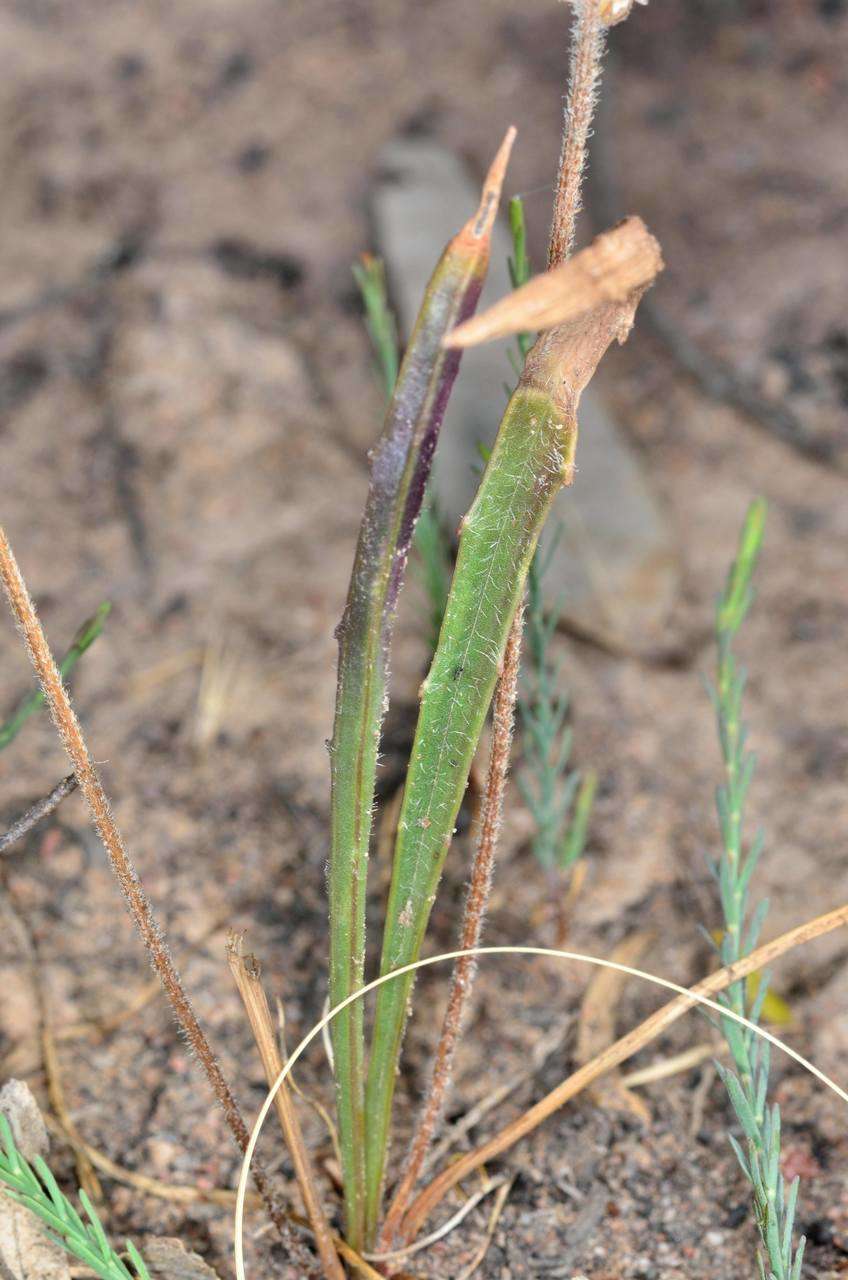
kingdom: Plantae
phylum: Tracheophyta
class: Magnoliopsida
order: Lamiales
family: Plantaginaceae
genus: Plantago
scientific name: Plantago gaudichaudii
